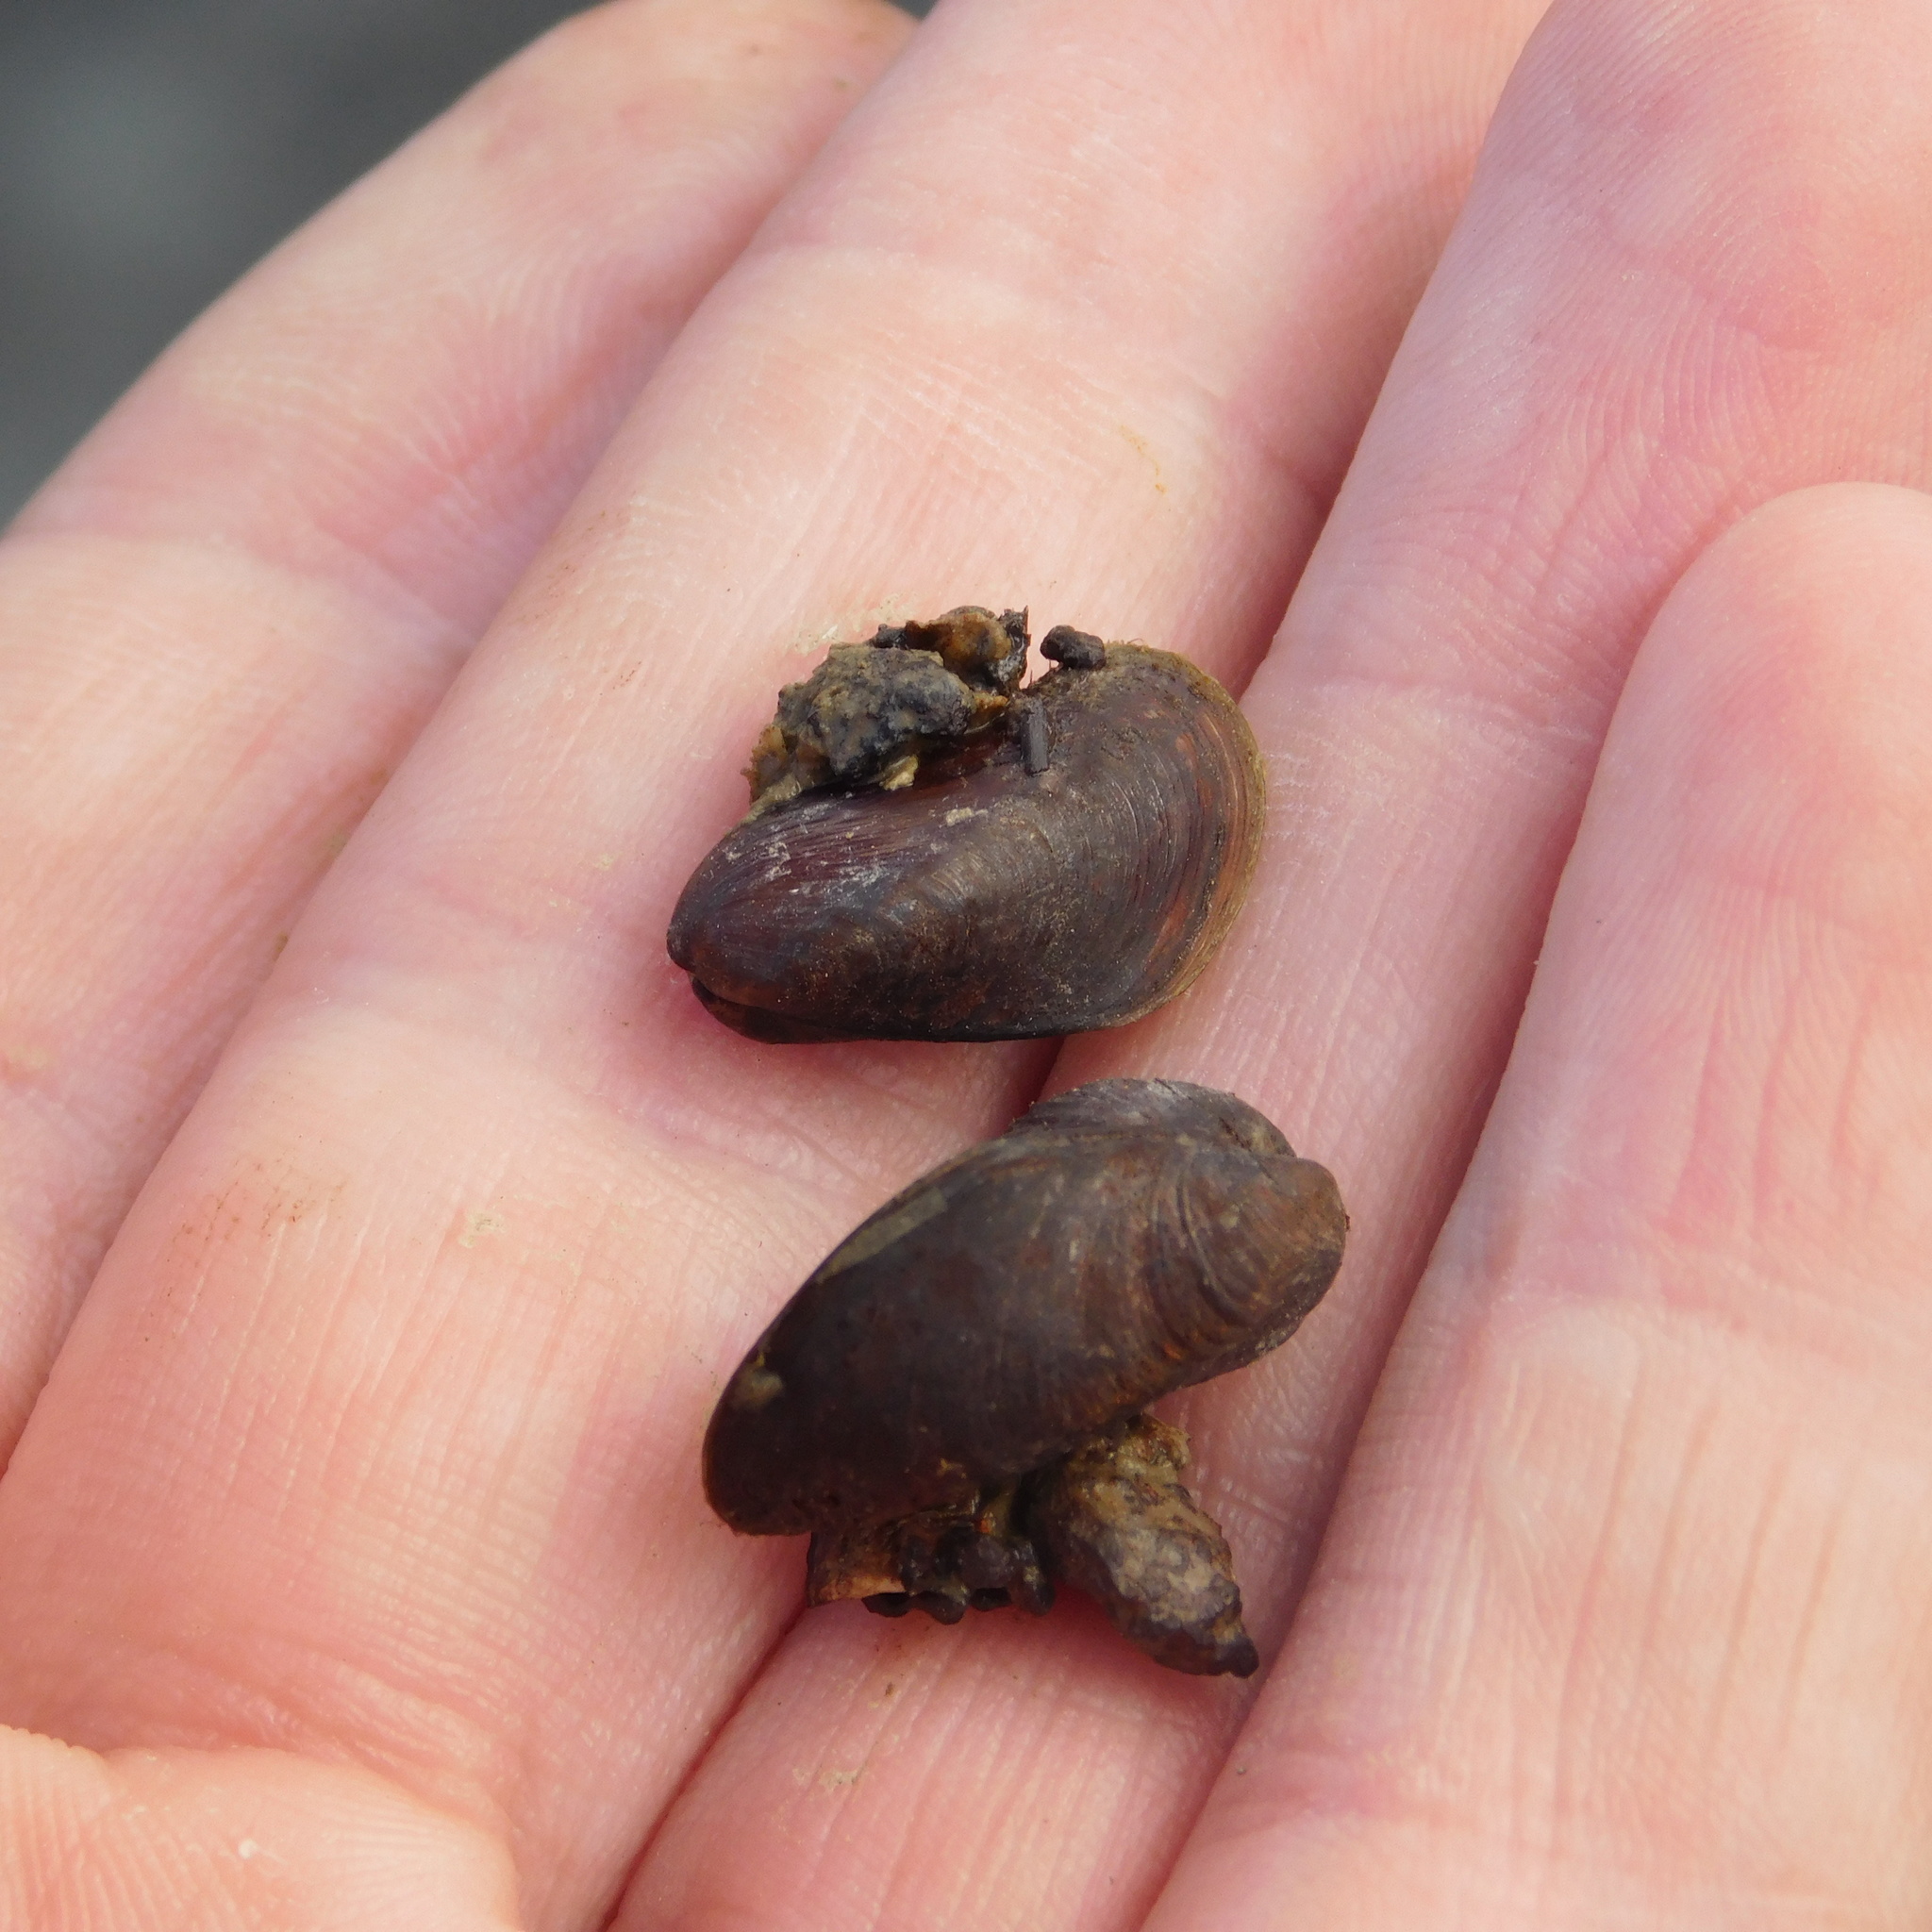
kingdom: Animalia
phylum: Mollusca
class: Bivalvia
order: Mytilida
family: Mytilidae
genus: Xenostrobus
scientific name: Xenostrobus securis
